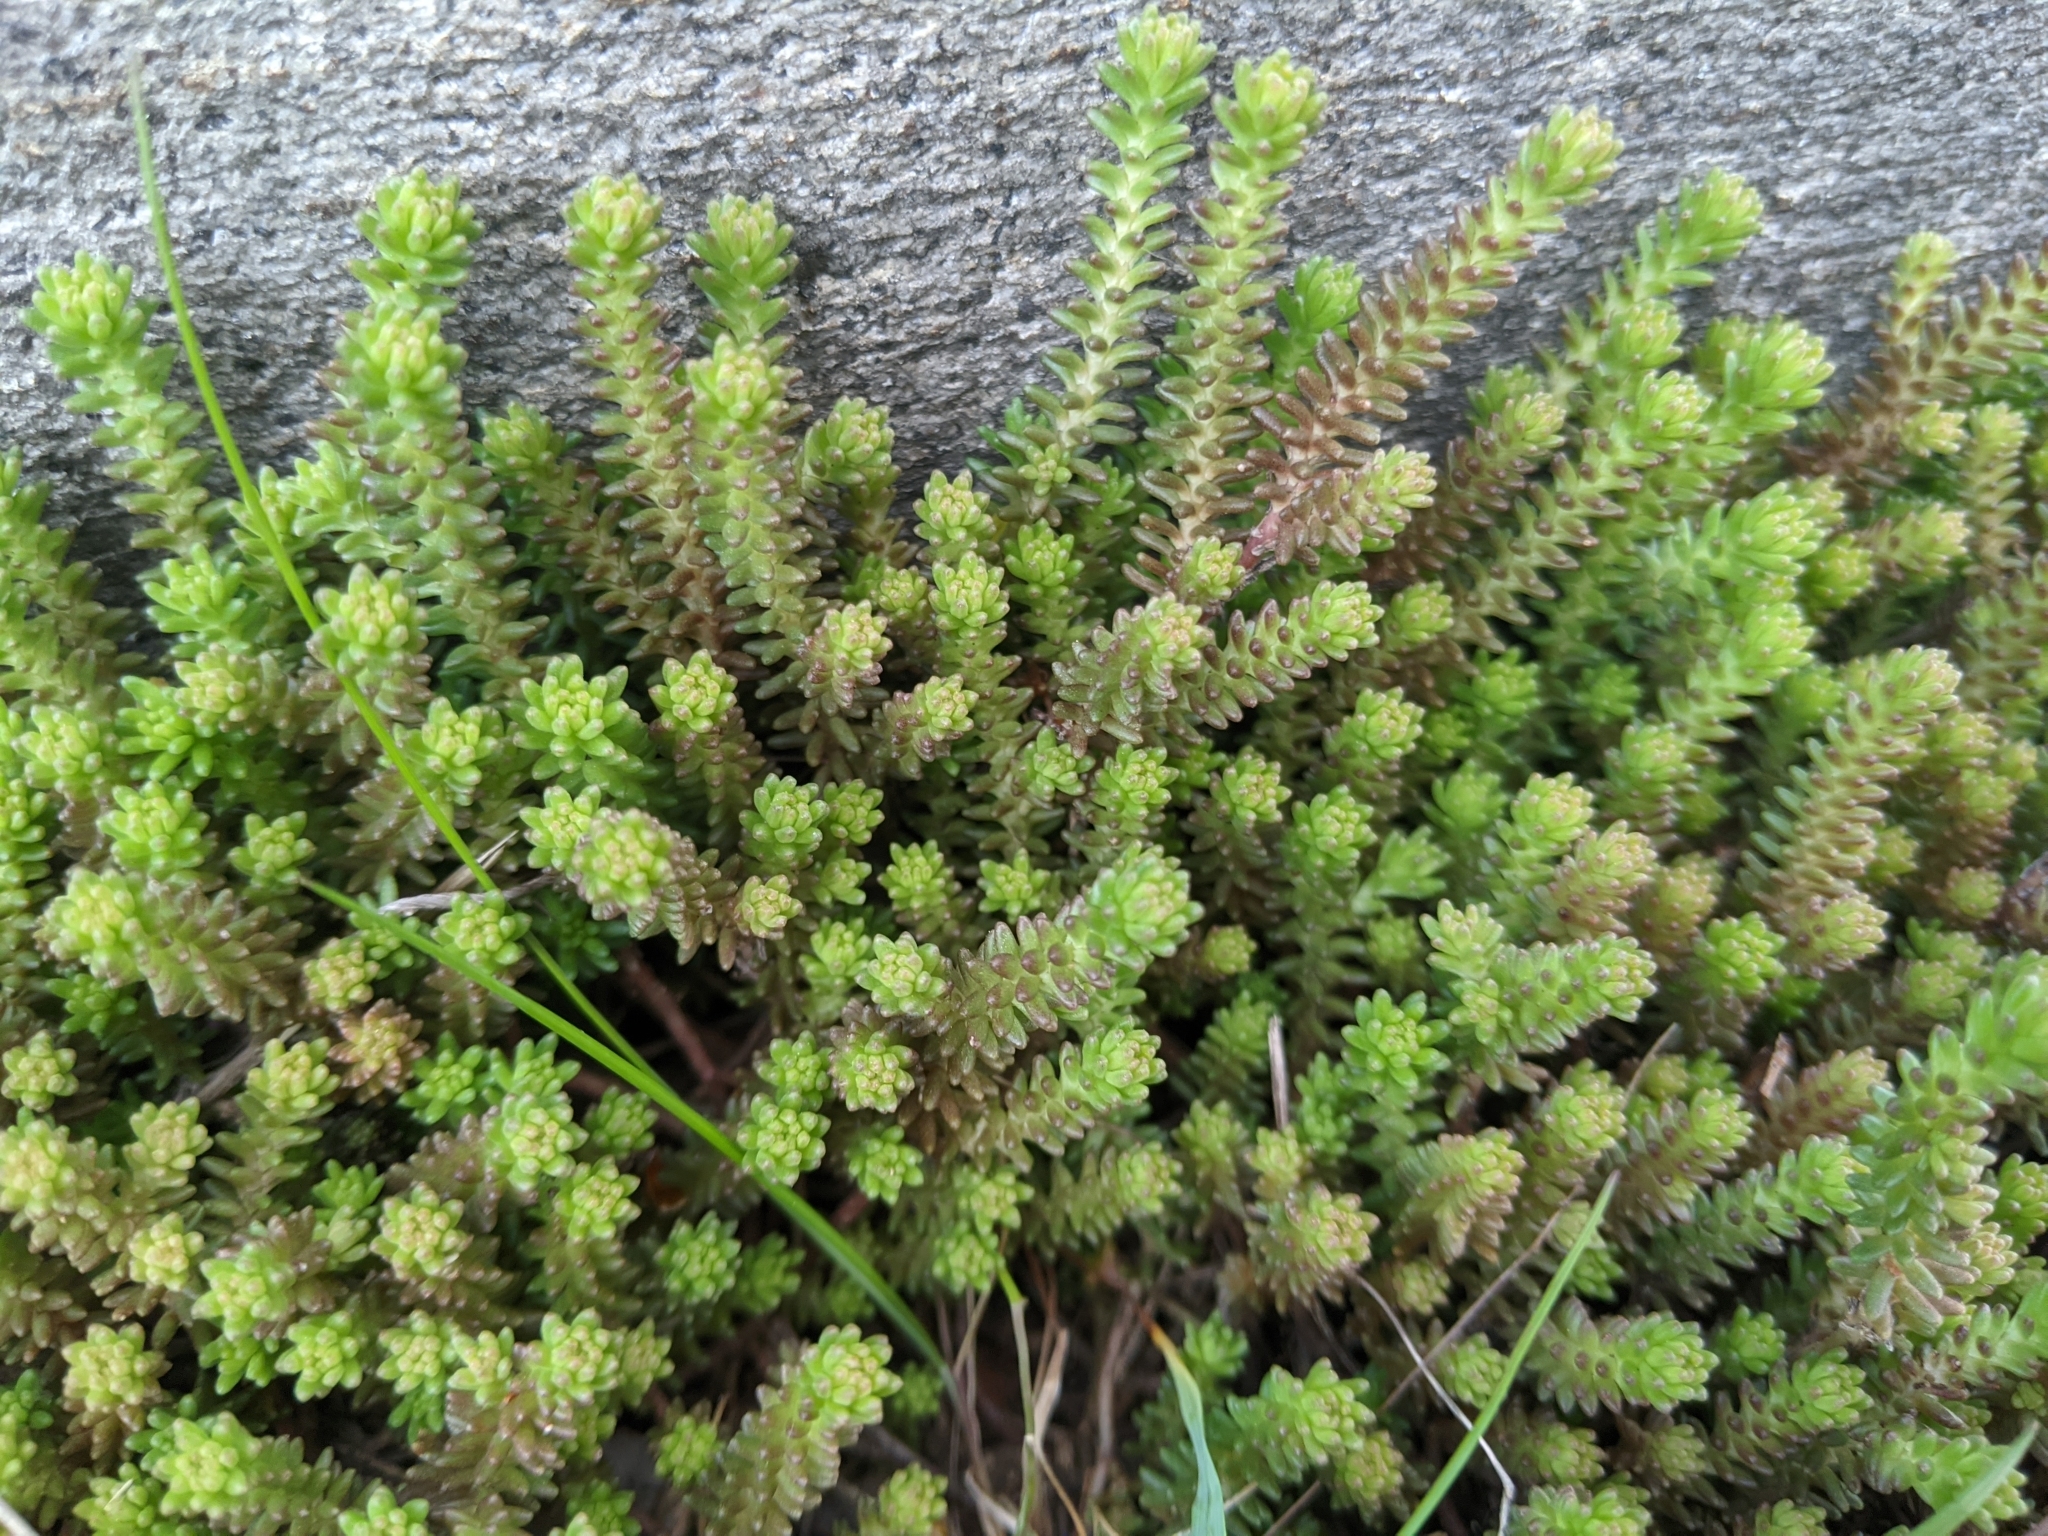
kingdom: Plantae
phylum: Tracheophyta
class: Magnoliopsida
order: Saxifragales
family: Crassulaceae
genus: Sedum
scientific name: Sedum sexangulare
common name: Tasteless stonecrop
